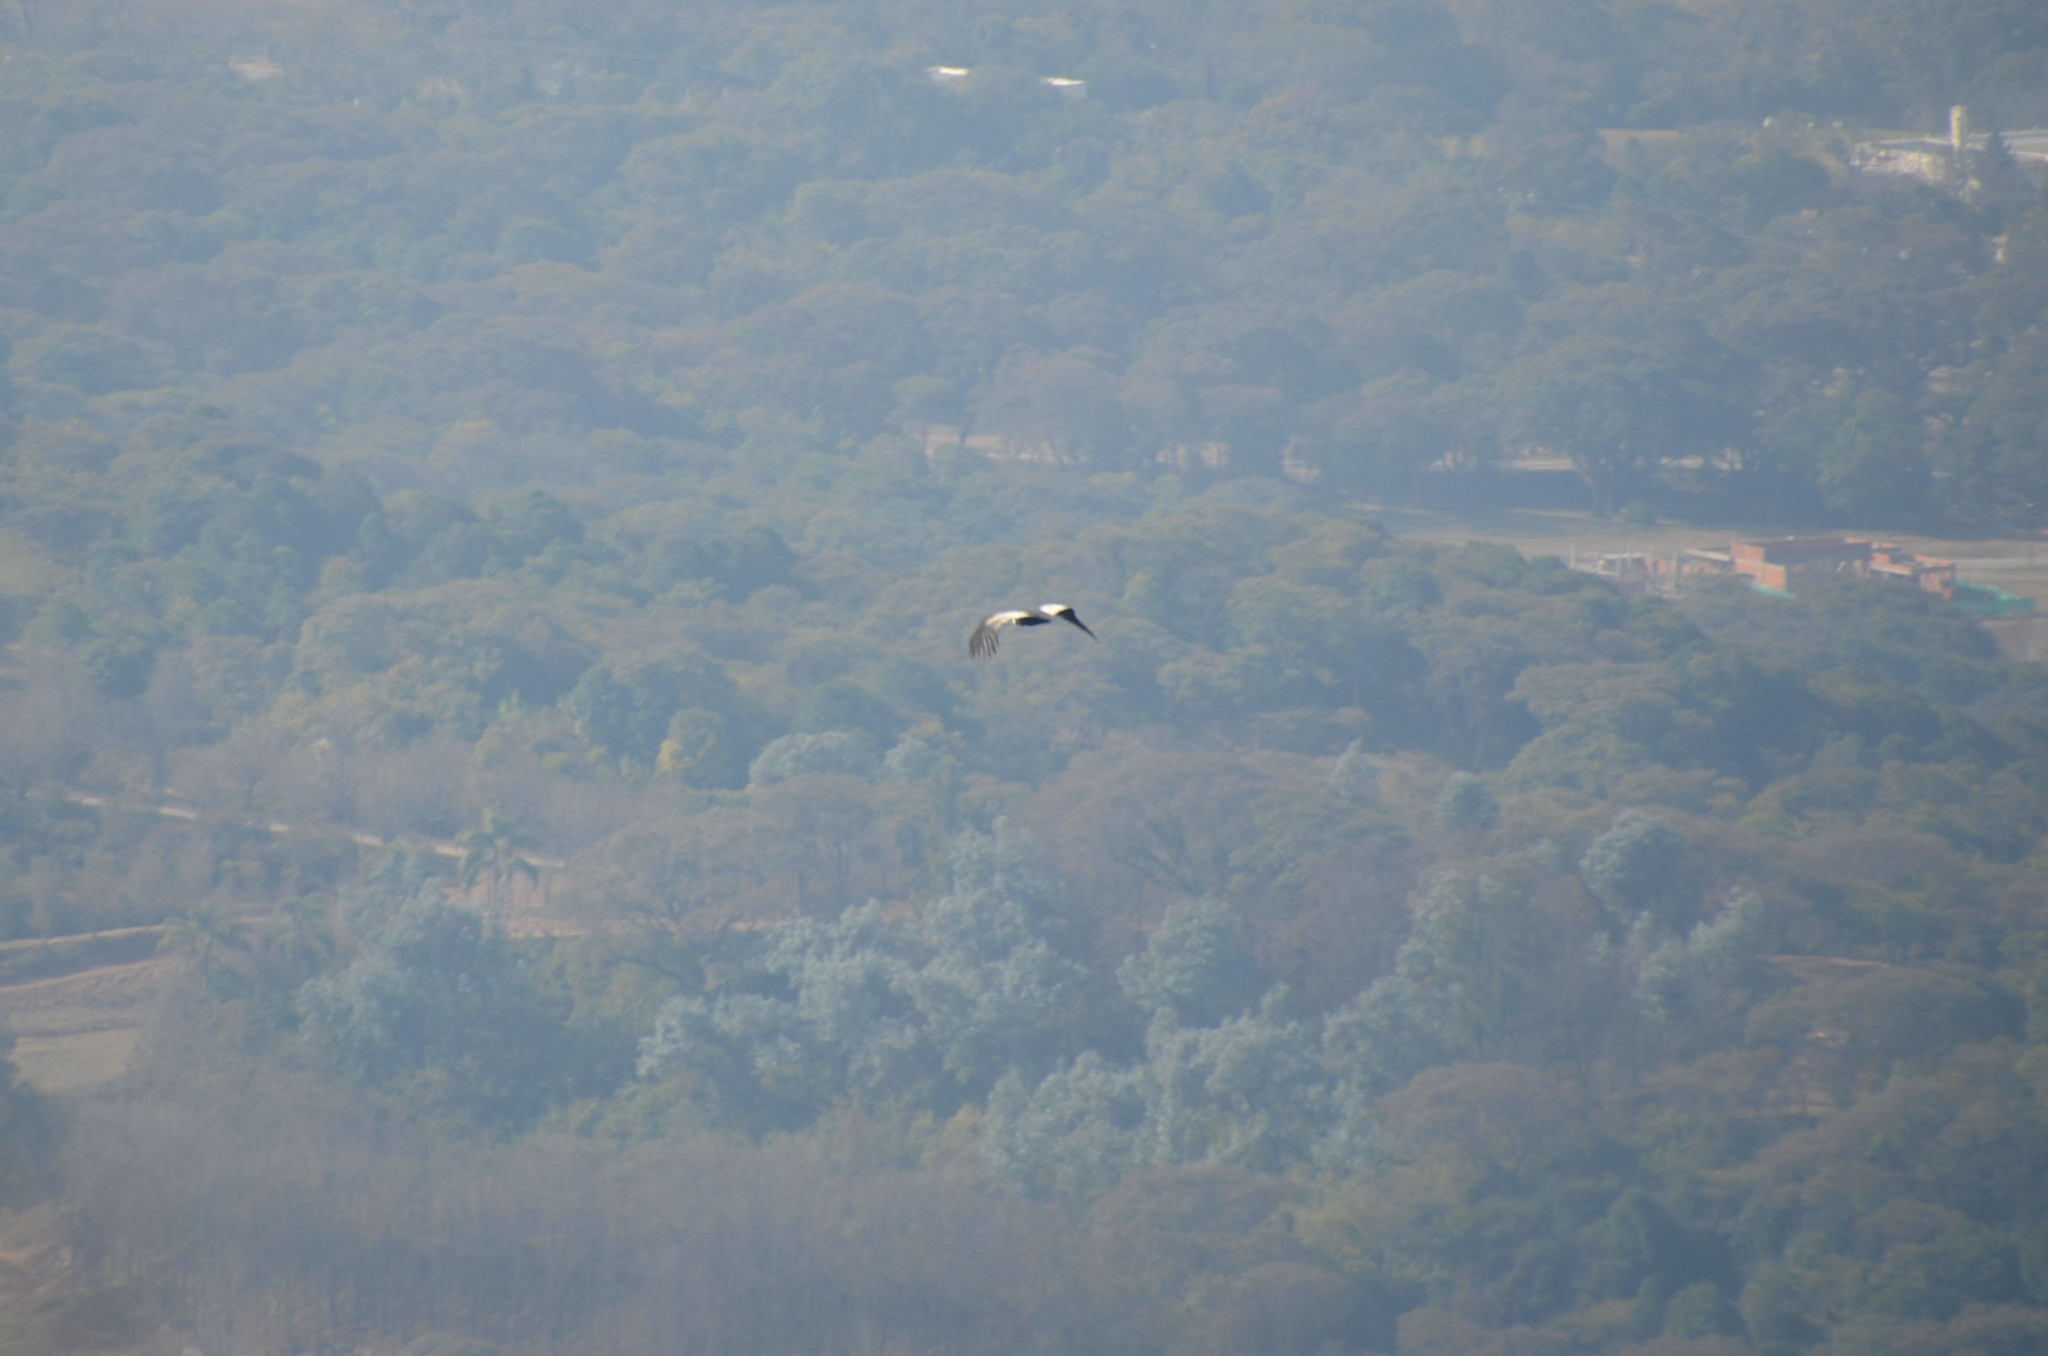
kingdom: Animalia
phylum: Chordata
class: Aves
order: Accipitriformes
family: Cathartidae
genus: Vultur
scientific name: Vultur gryphus
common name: Andean condor
